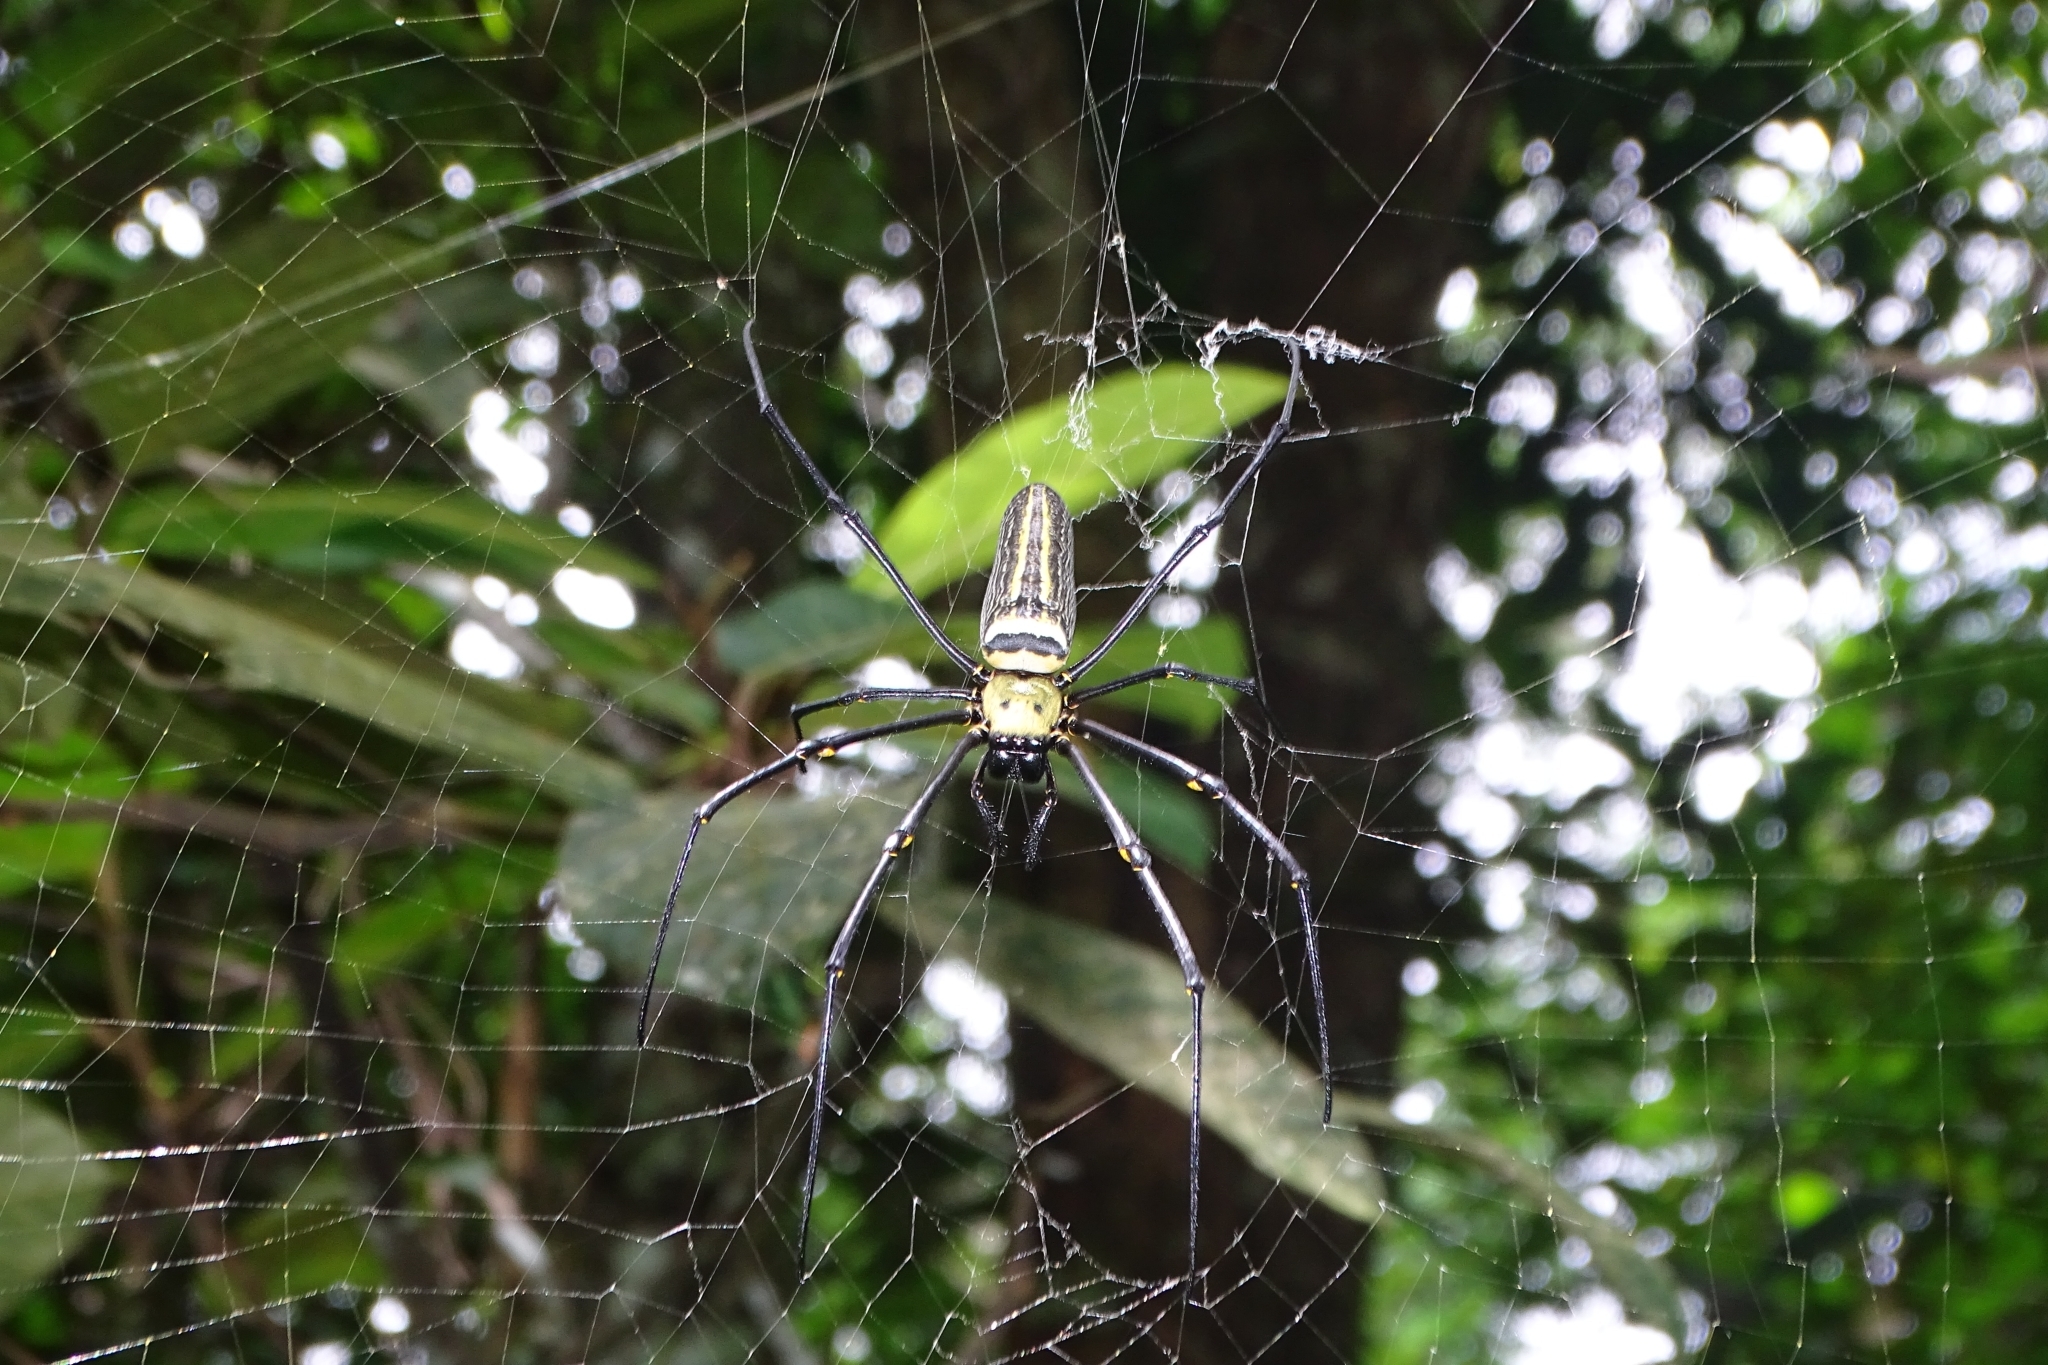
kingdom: Animalia
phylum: Arthropoda
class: Arachnida
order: Araneae
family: Araneidae
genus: Nephila
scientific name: Nephila pilipes
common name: Giant golden orb weaver
